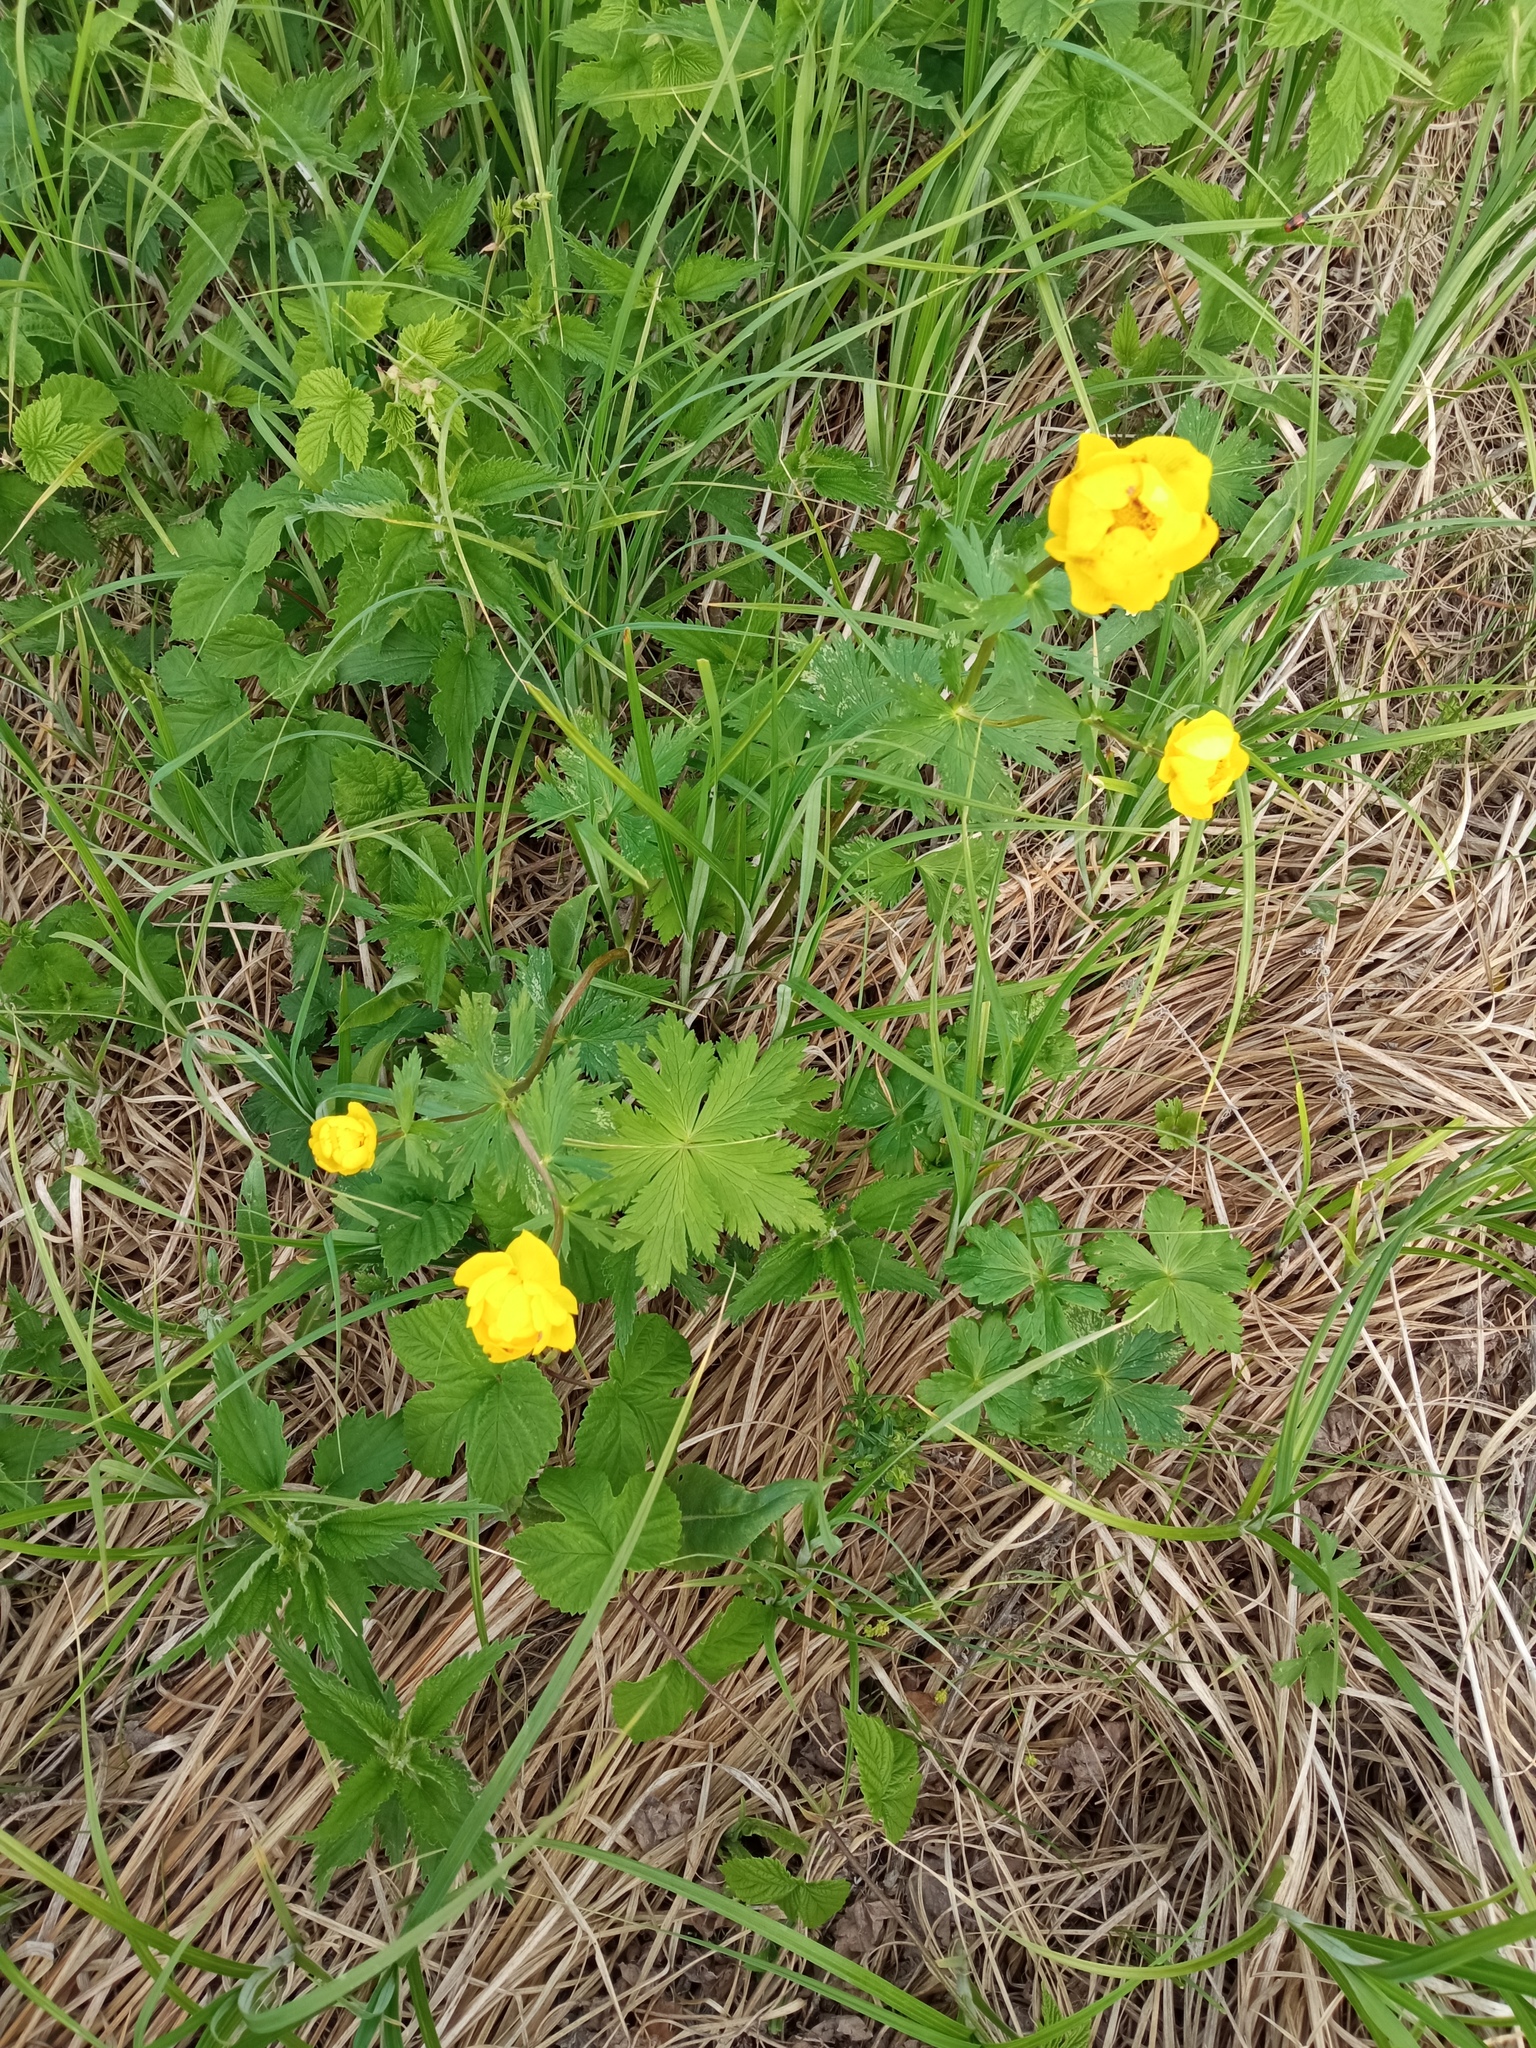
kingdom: Plantae
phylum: Tracheophyta
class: Magnoliopsida
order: Ranunculales
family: Ranunculaceae
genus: Trollius
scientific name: Trollius europaeus
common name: European globeflower
